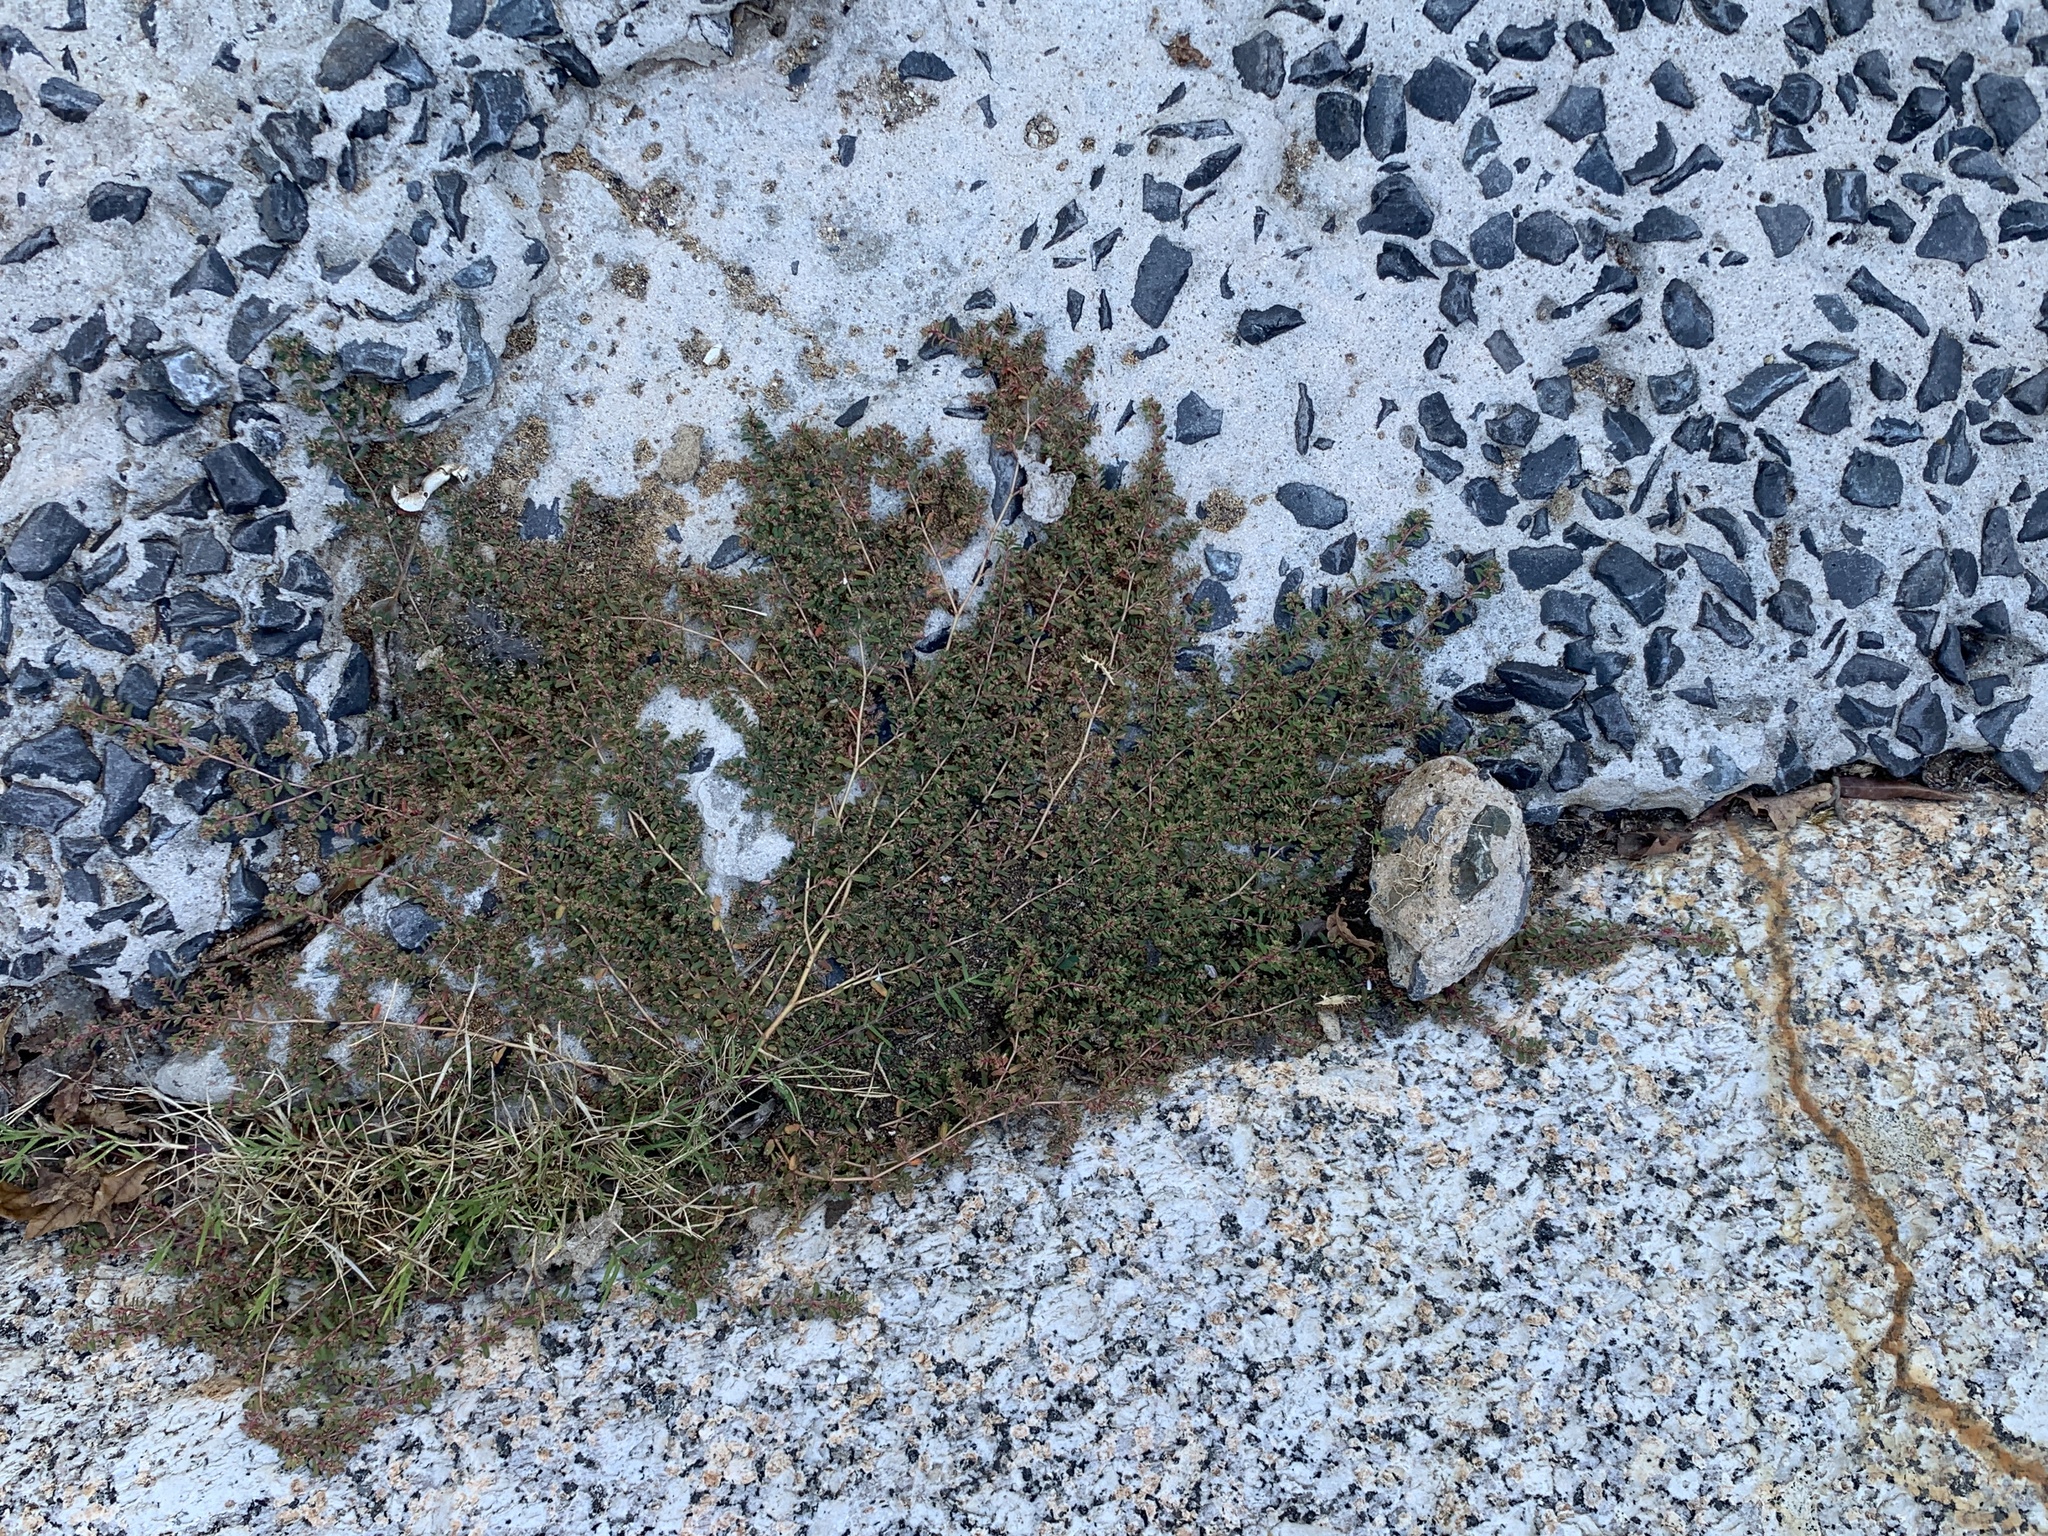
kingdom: Plantae
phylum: Tracheophyta
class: Magnoliopsida
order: Malpighiales
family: Euphorbiaceae
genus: Euphorbia
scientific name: Euphorbia maculata
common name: Spotted spurge
